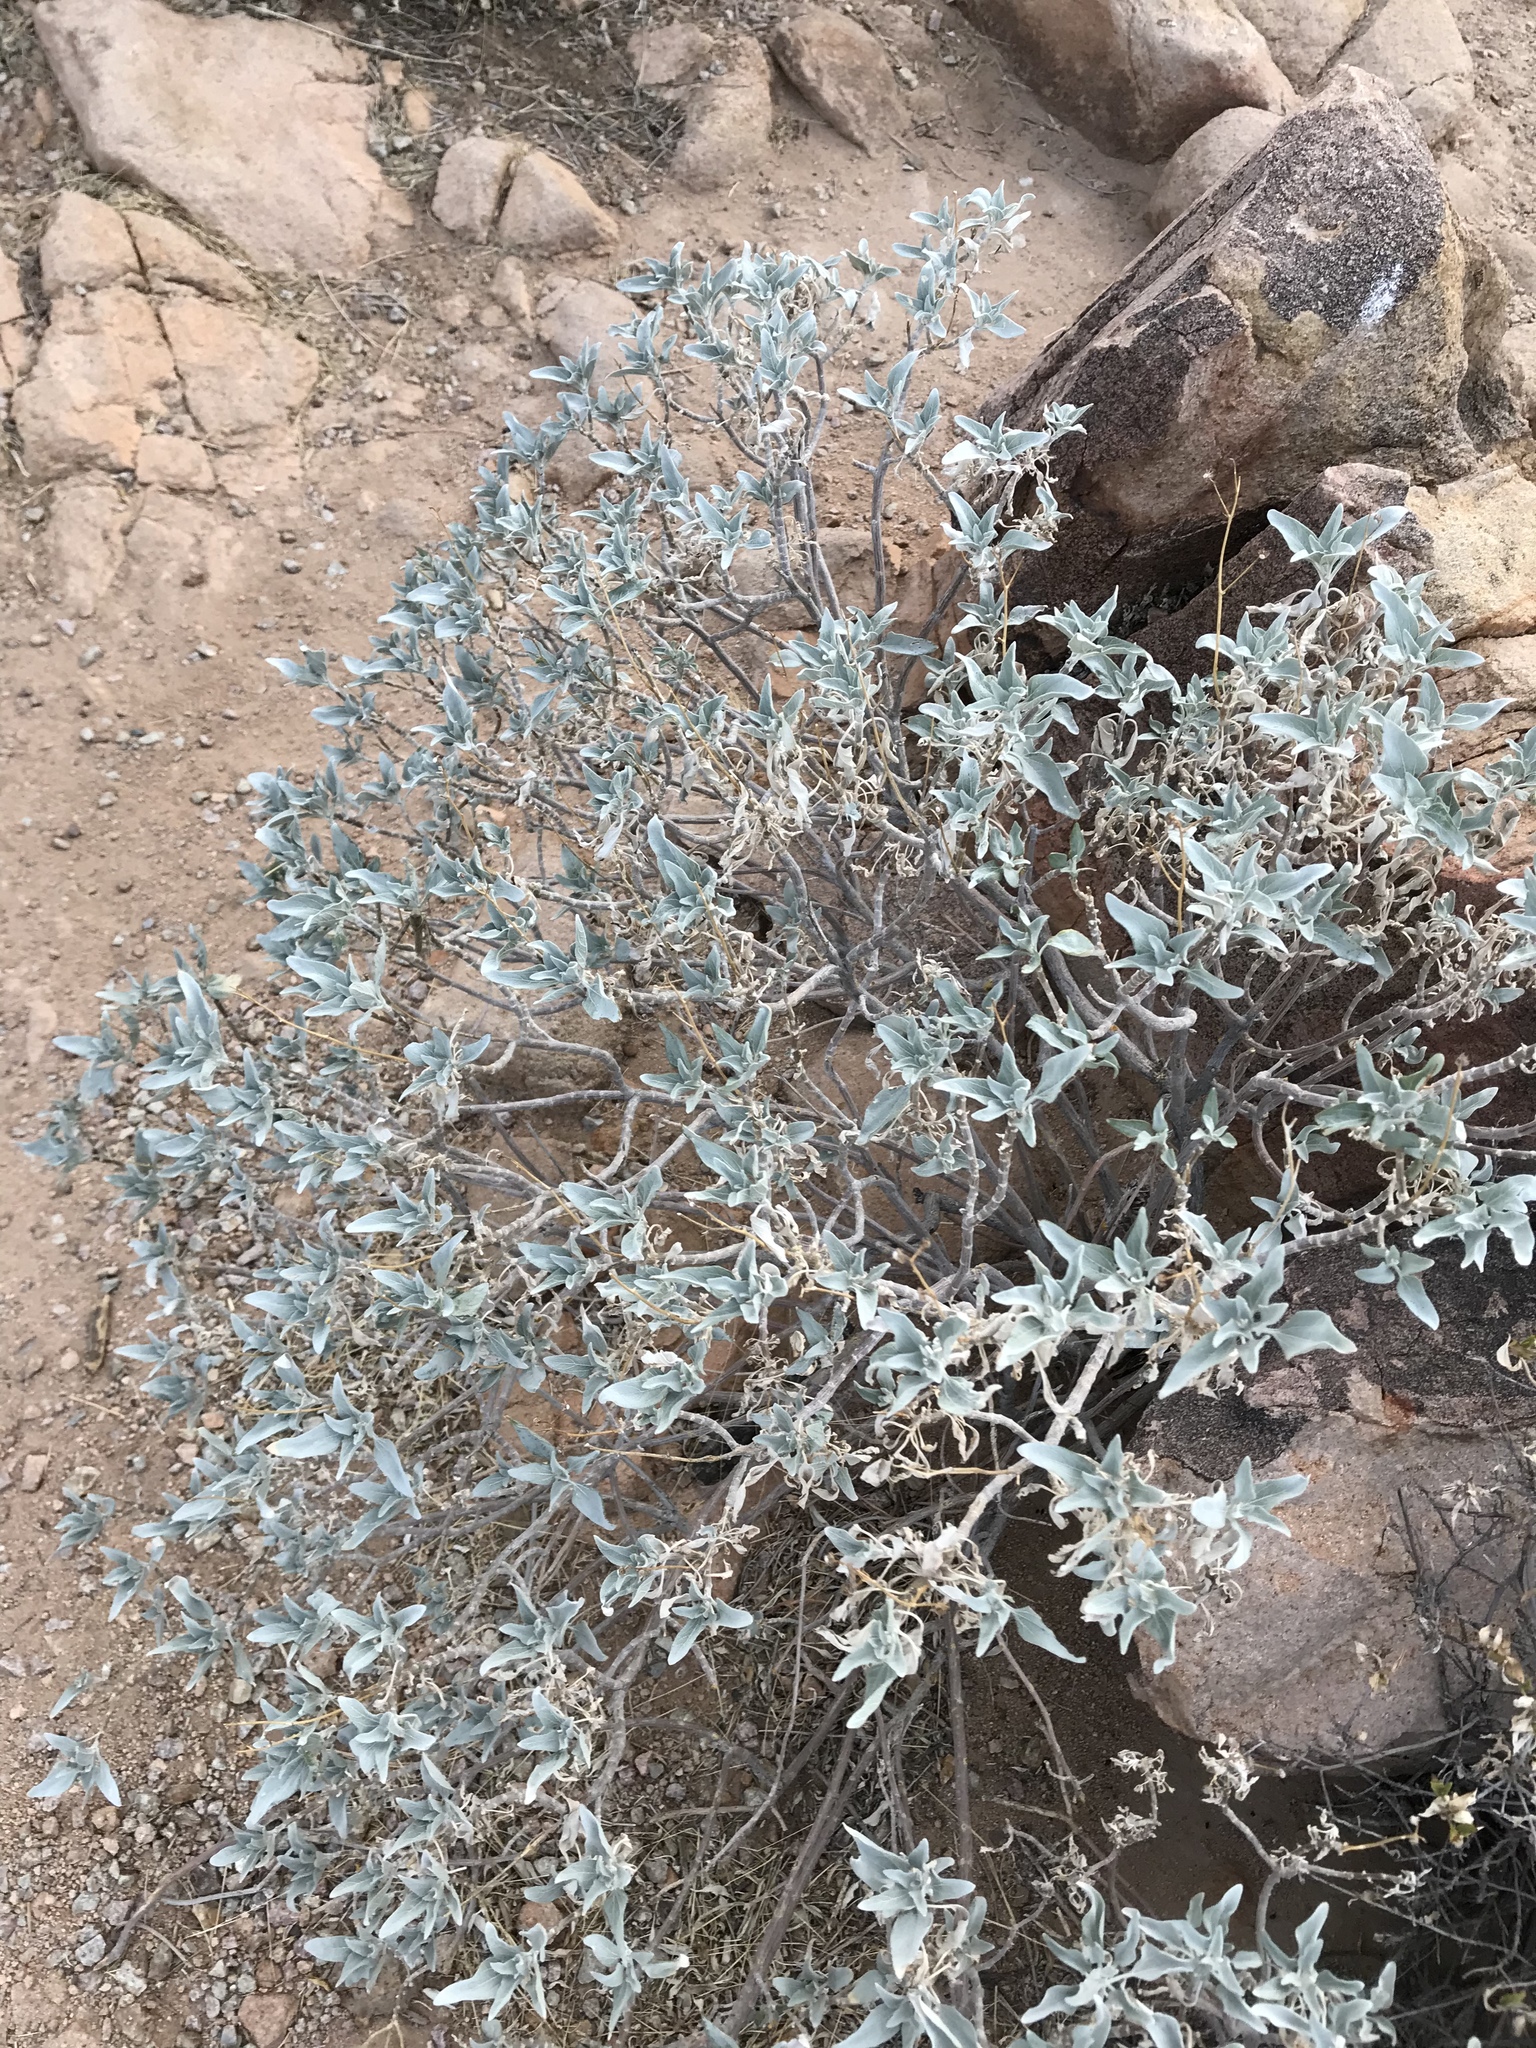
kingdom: Plantae
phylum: Tracheophyta
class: Magnoliopsida
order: Asterales
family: Asteraceae
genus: Encelia
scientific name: Encelia farinosa
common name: Brittlebush
